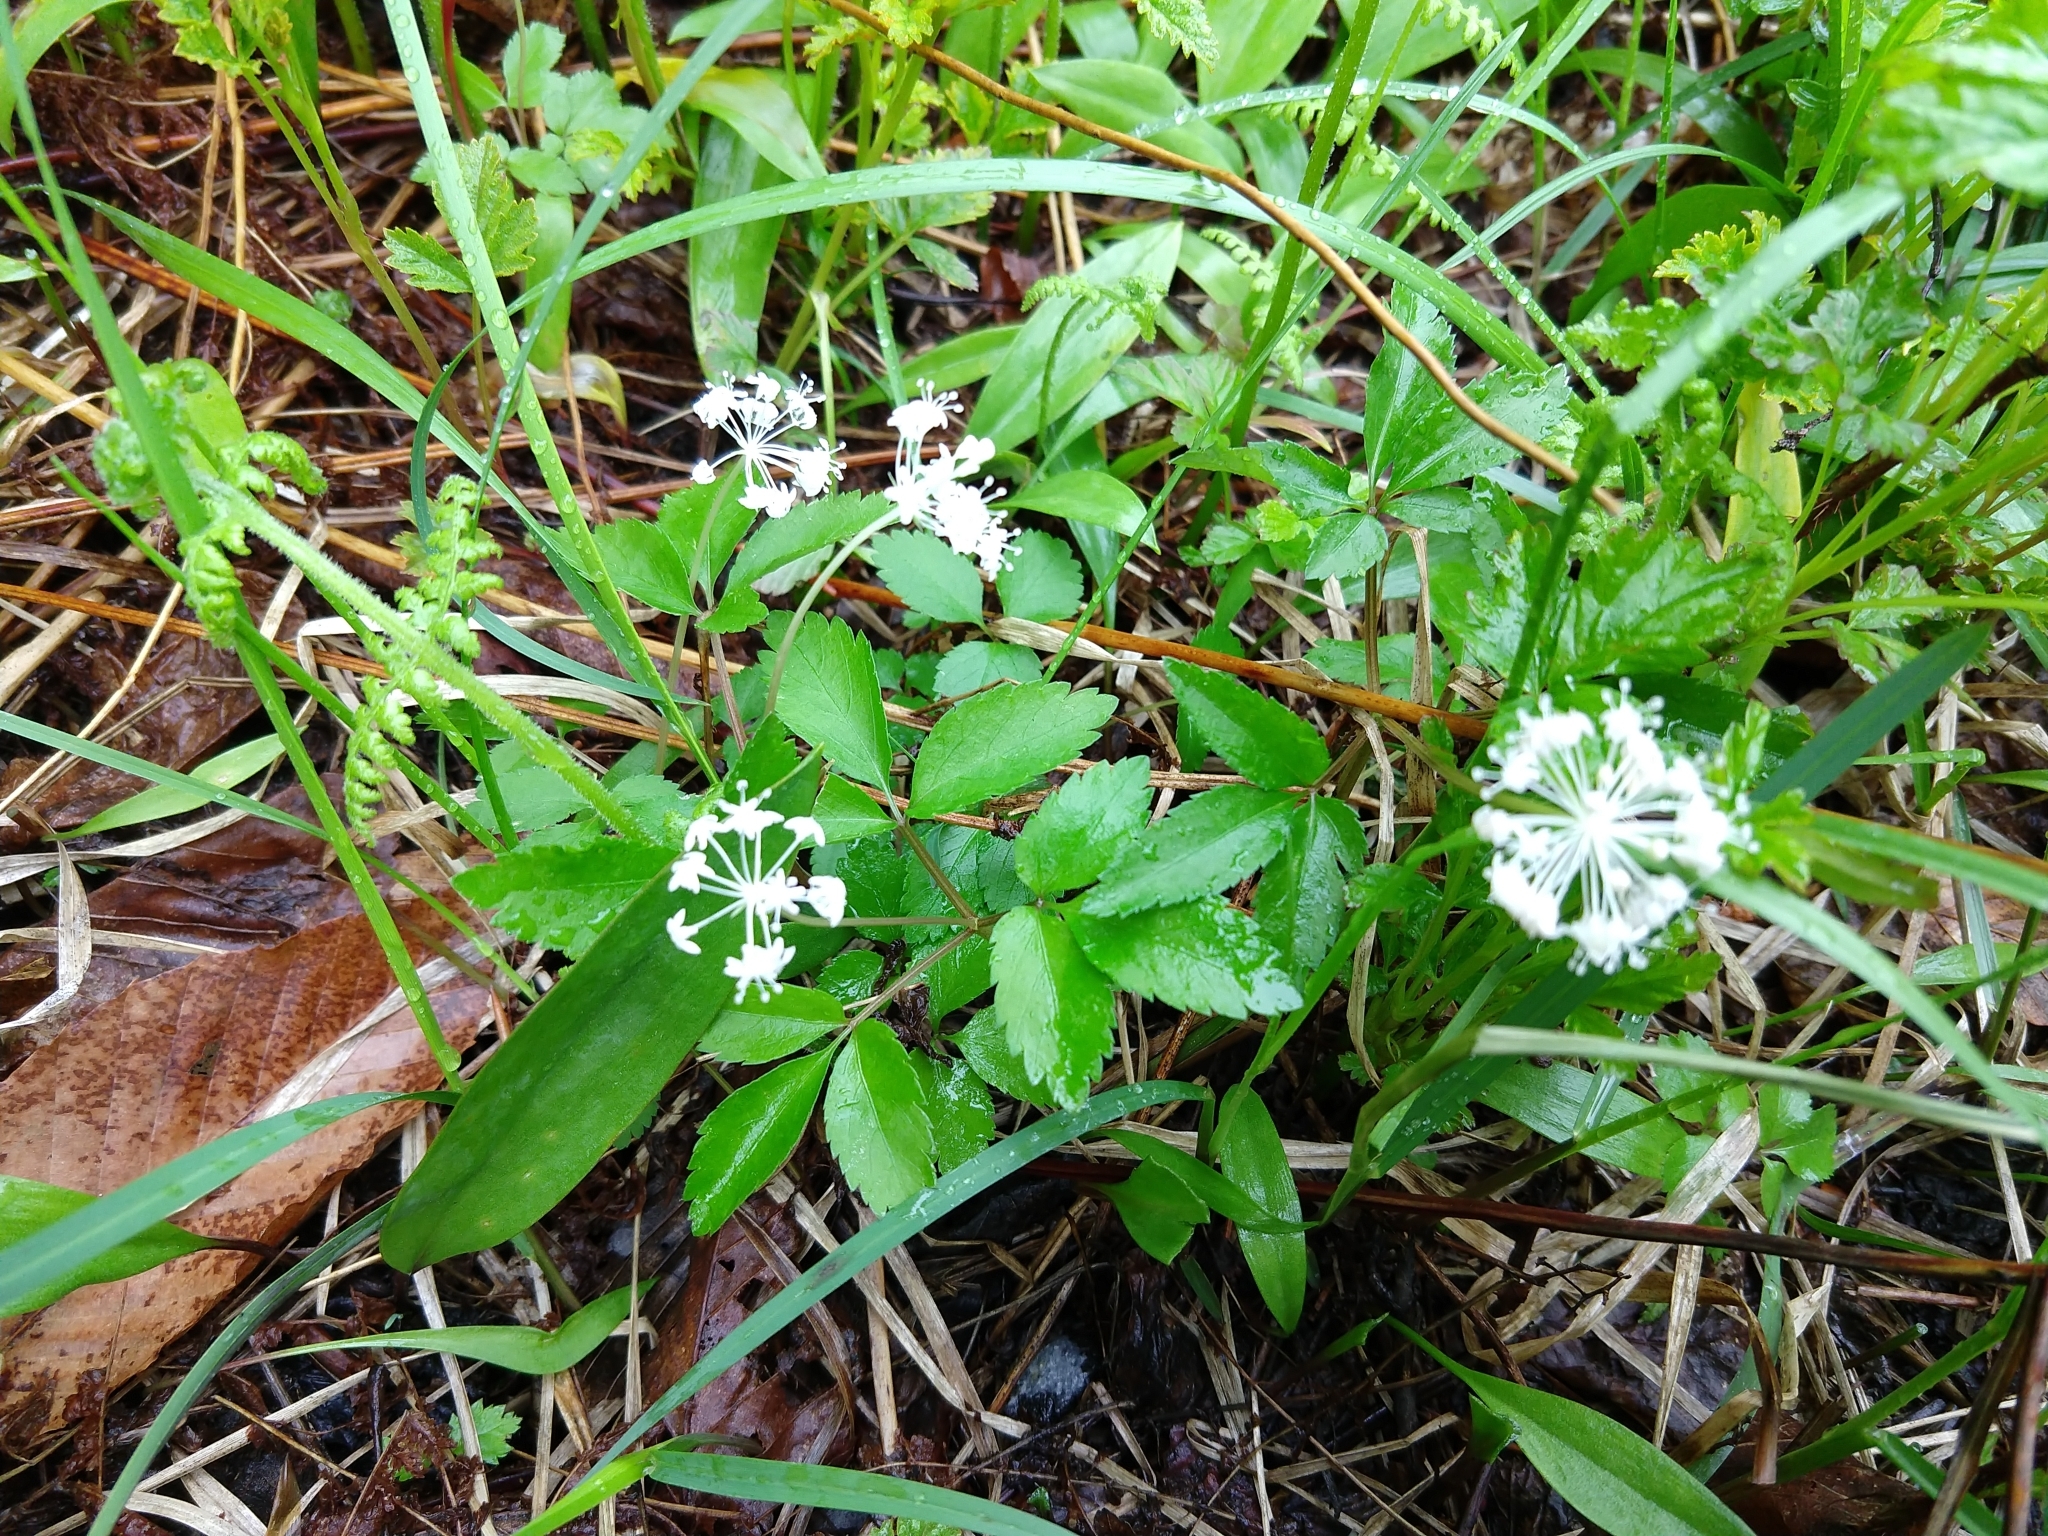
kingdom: Plantae
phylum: Tracheophyta
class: Magnoliopsida
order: Apiales
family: Araliaceae
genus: Panax
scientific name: Panax trifolius
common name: Dwarf ginseng
